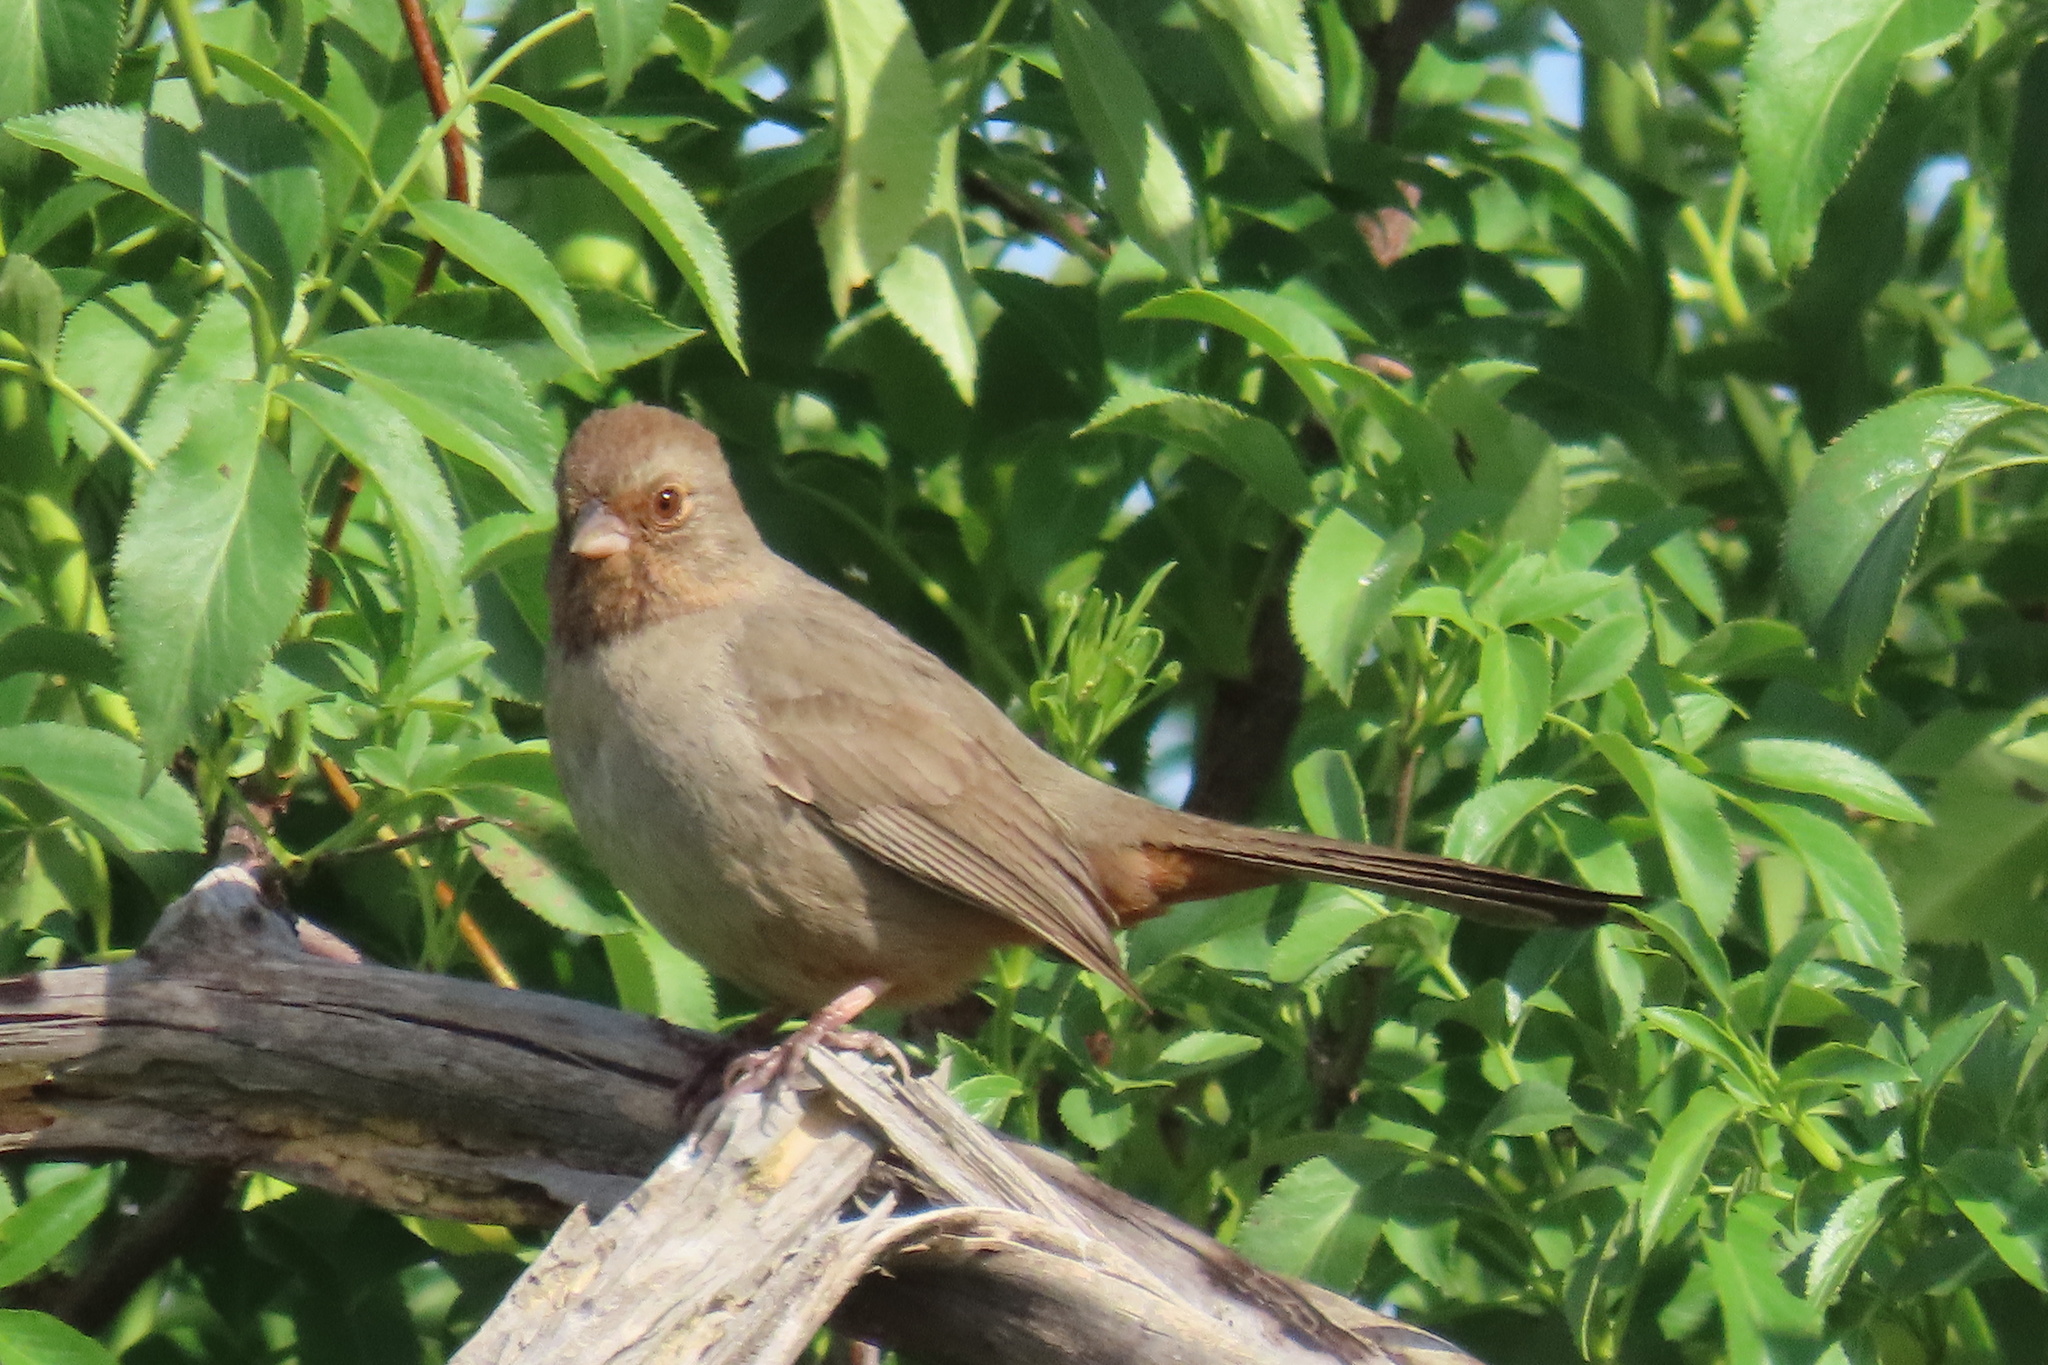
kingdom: Animalia
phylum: Chordata
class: Aves
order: Passeriformes
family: Passerellidae
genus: Melozone
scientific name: Melozone crissalis
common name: California towhee
